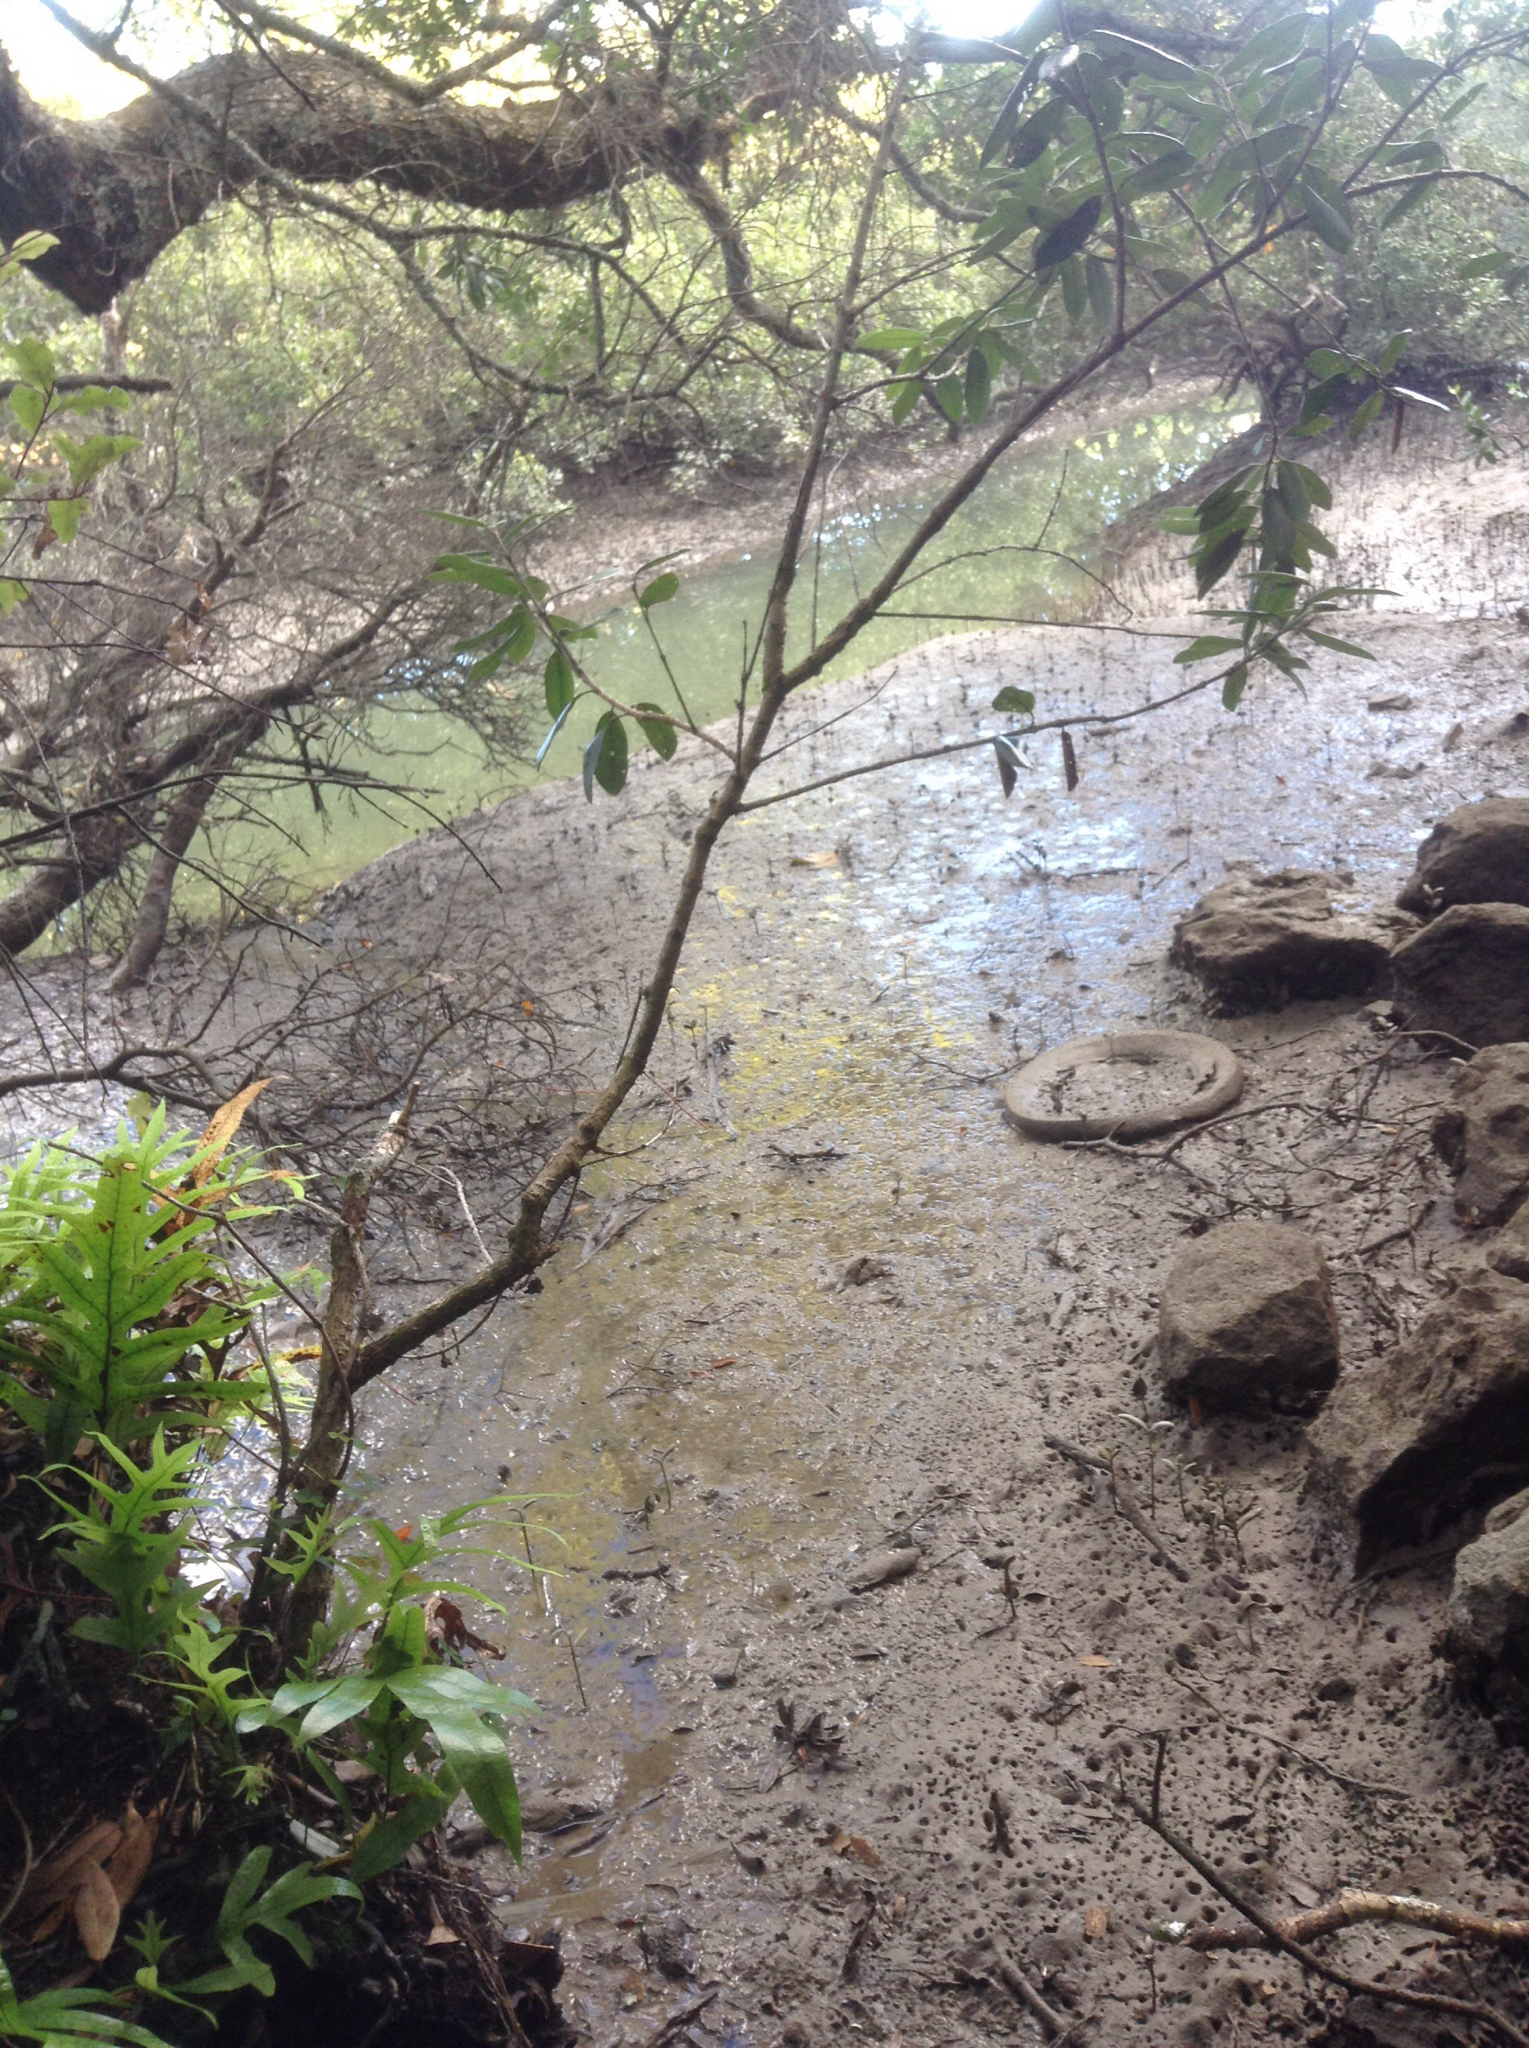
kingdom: Plantae
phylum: Tracheophyta
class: Magnoliopsida
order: Myrtales
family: Myrtaceae
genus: Metrosideros
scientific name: Metrosideros excelsa
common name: New zealand christmastree
